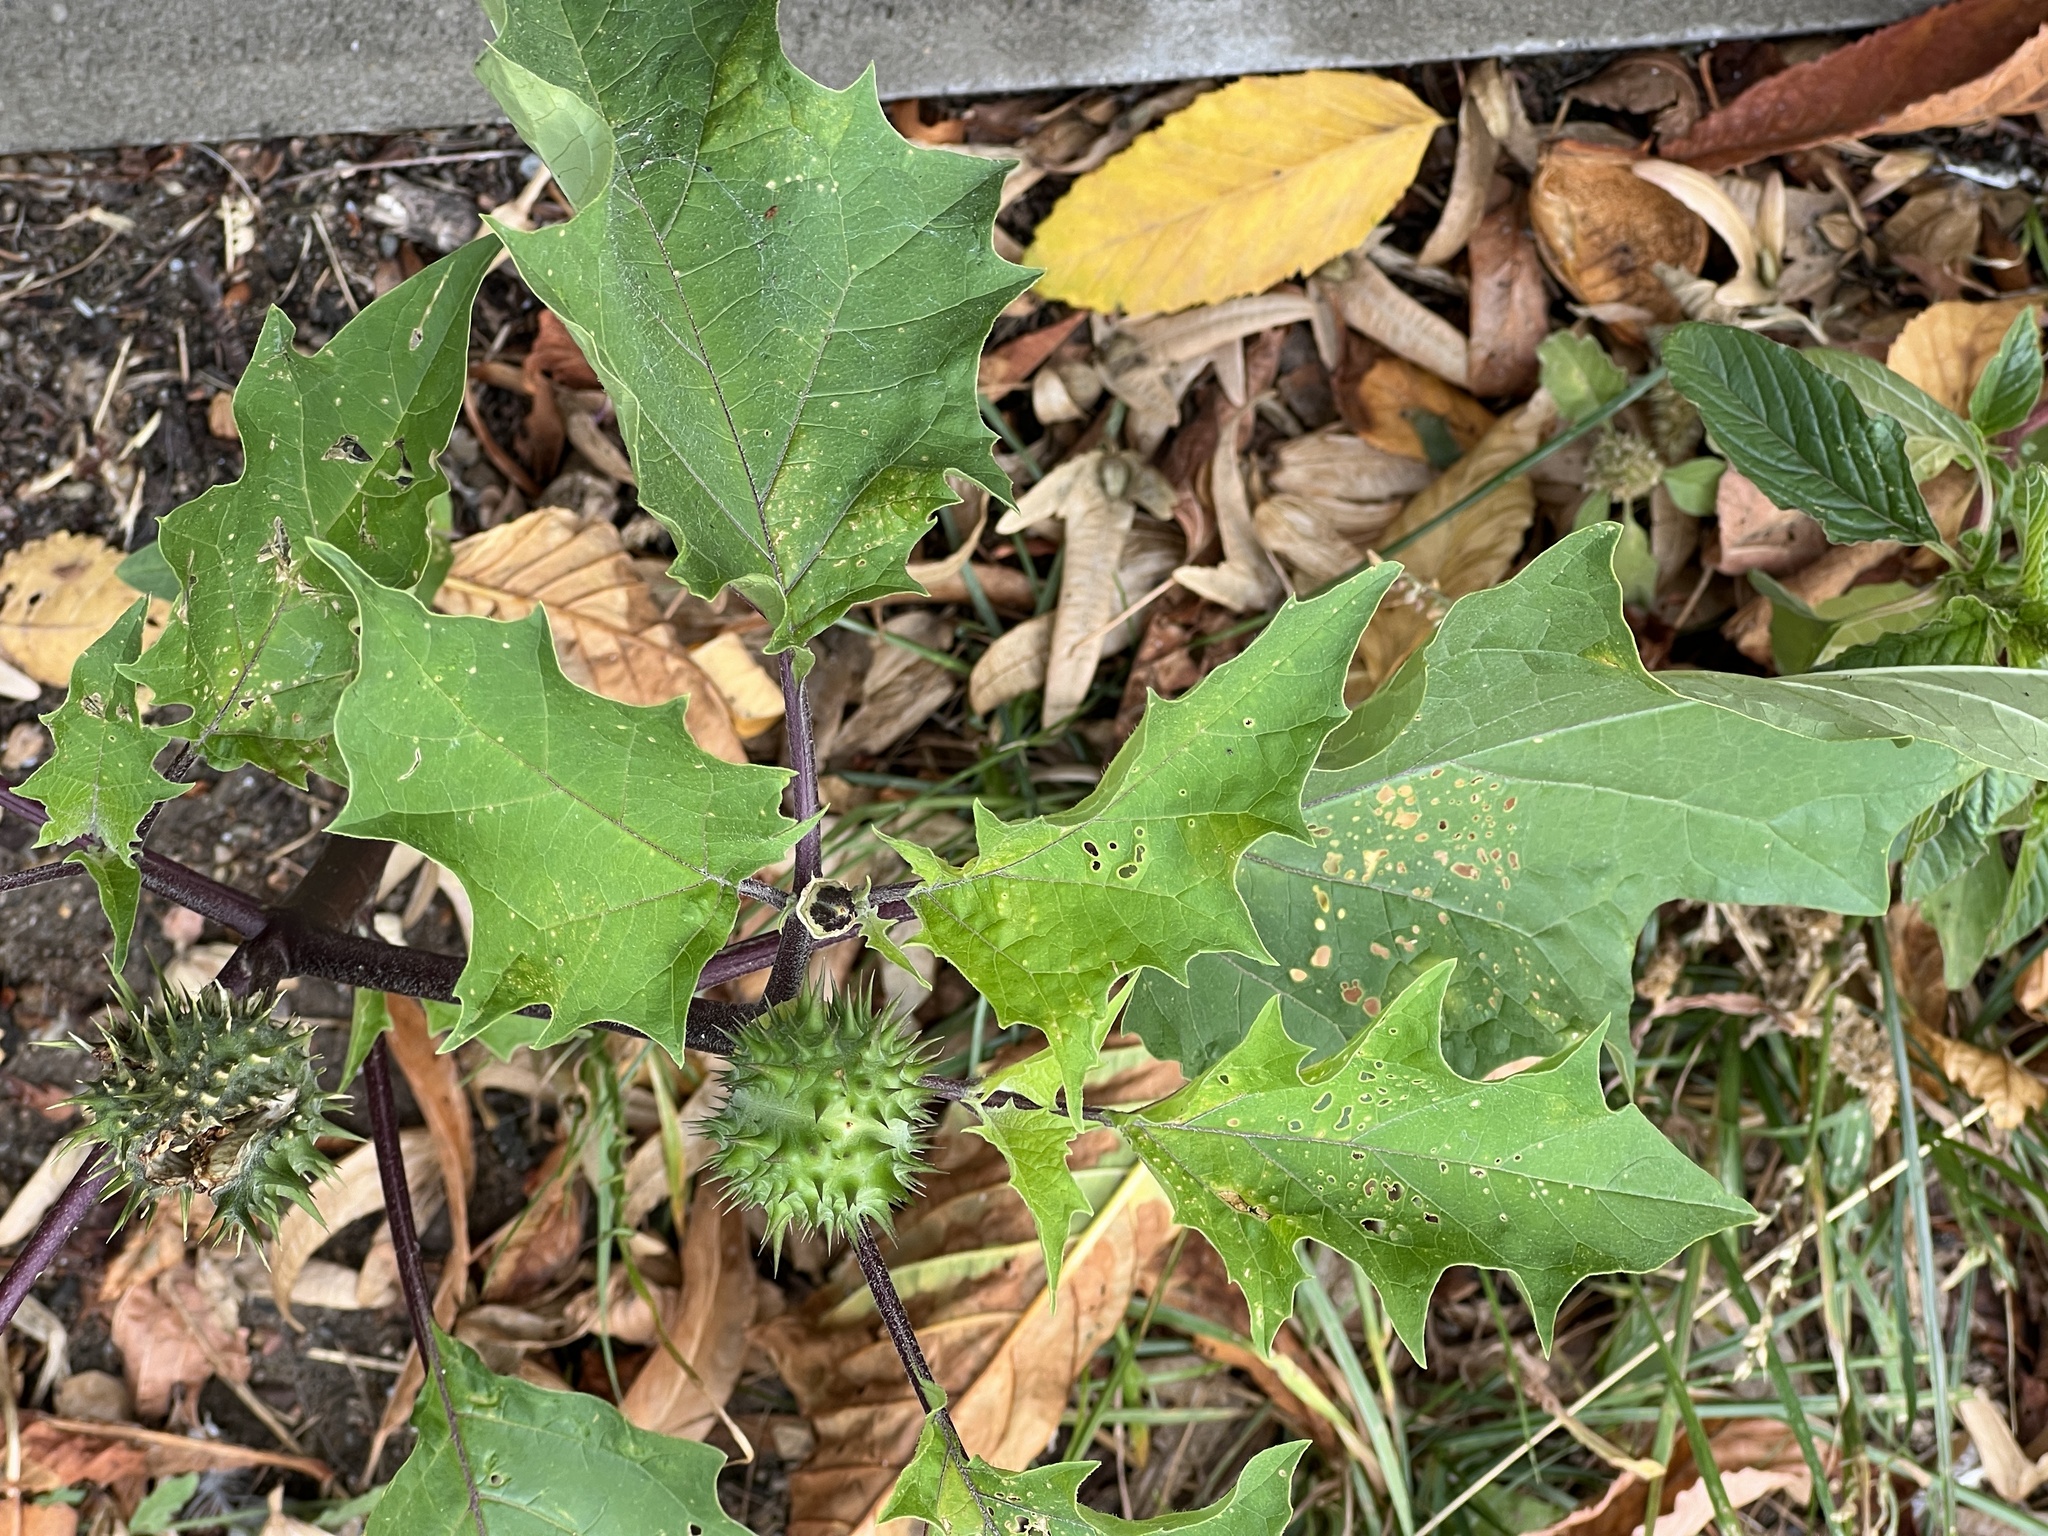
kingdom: Plantae
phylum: Tracheophyta
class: Magnoliopsida
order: Solanales
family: Solanaceae
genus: Datura
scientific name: Datura stramonium
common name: Thorn-apple
